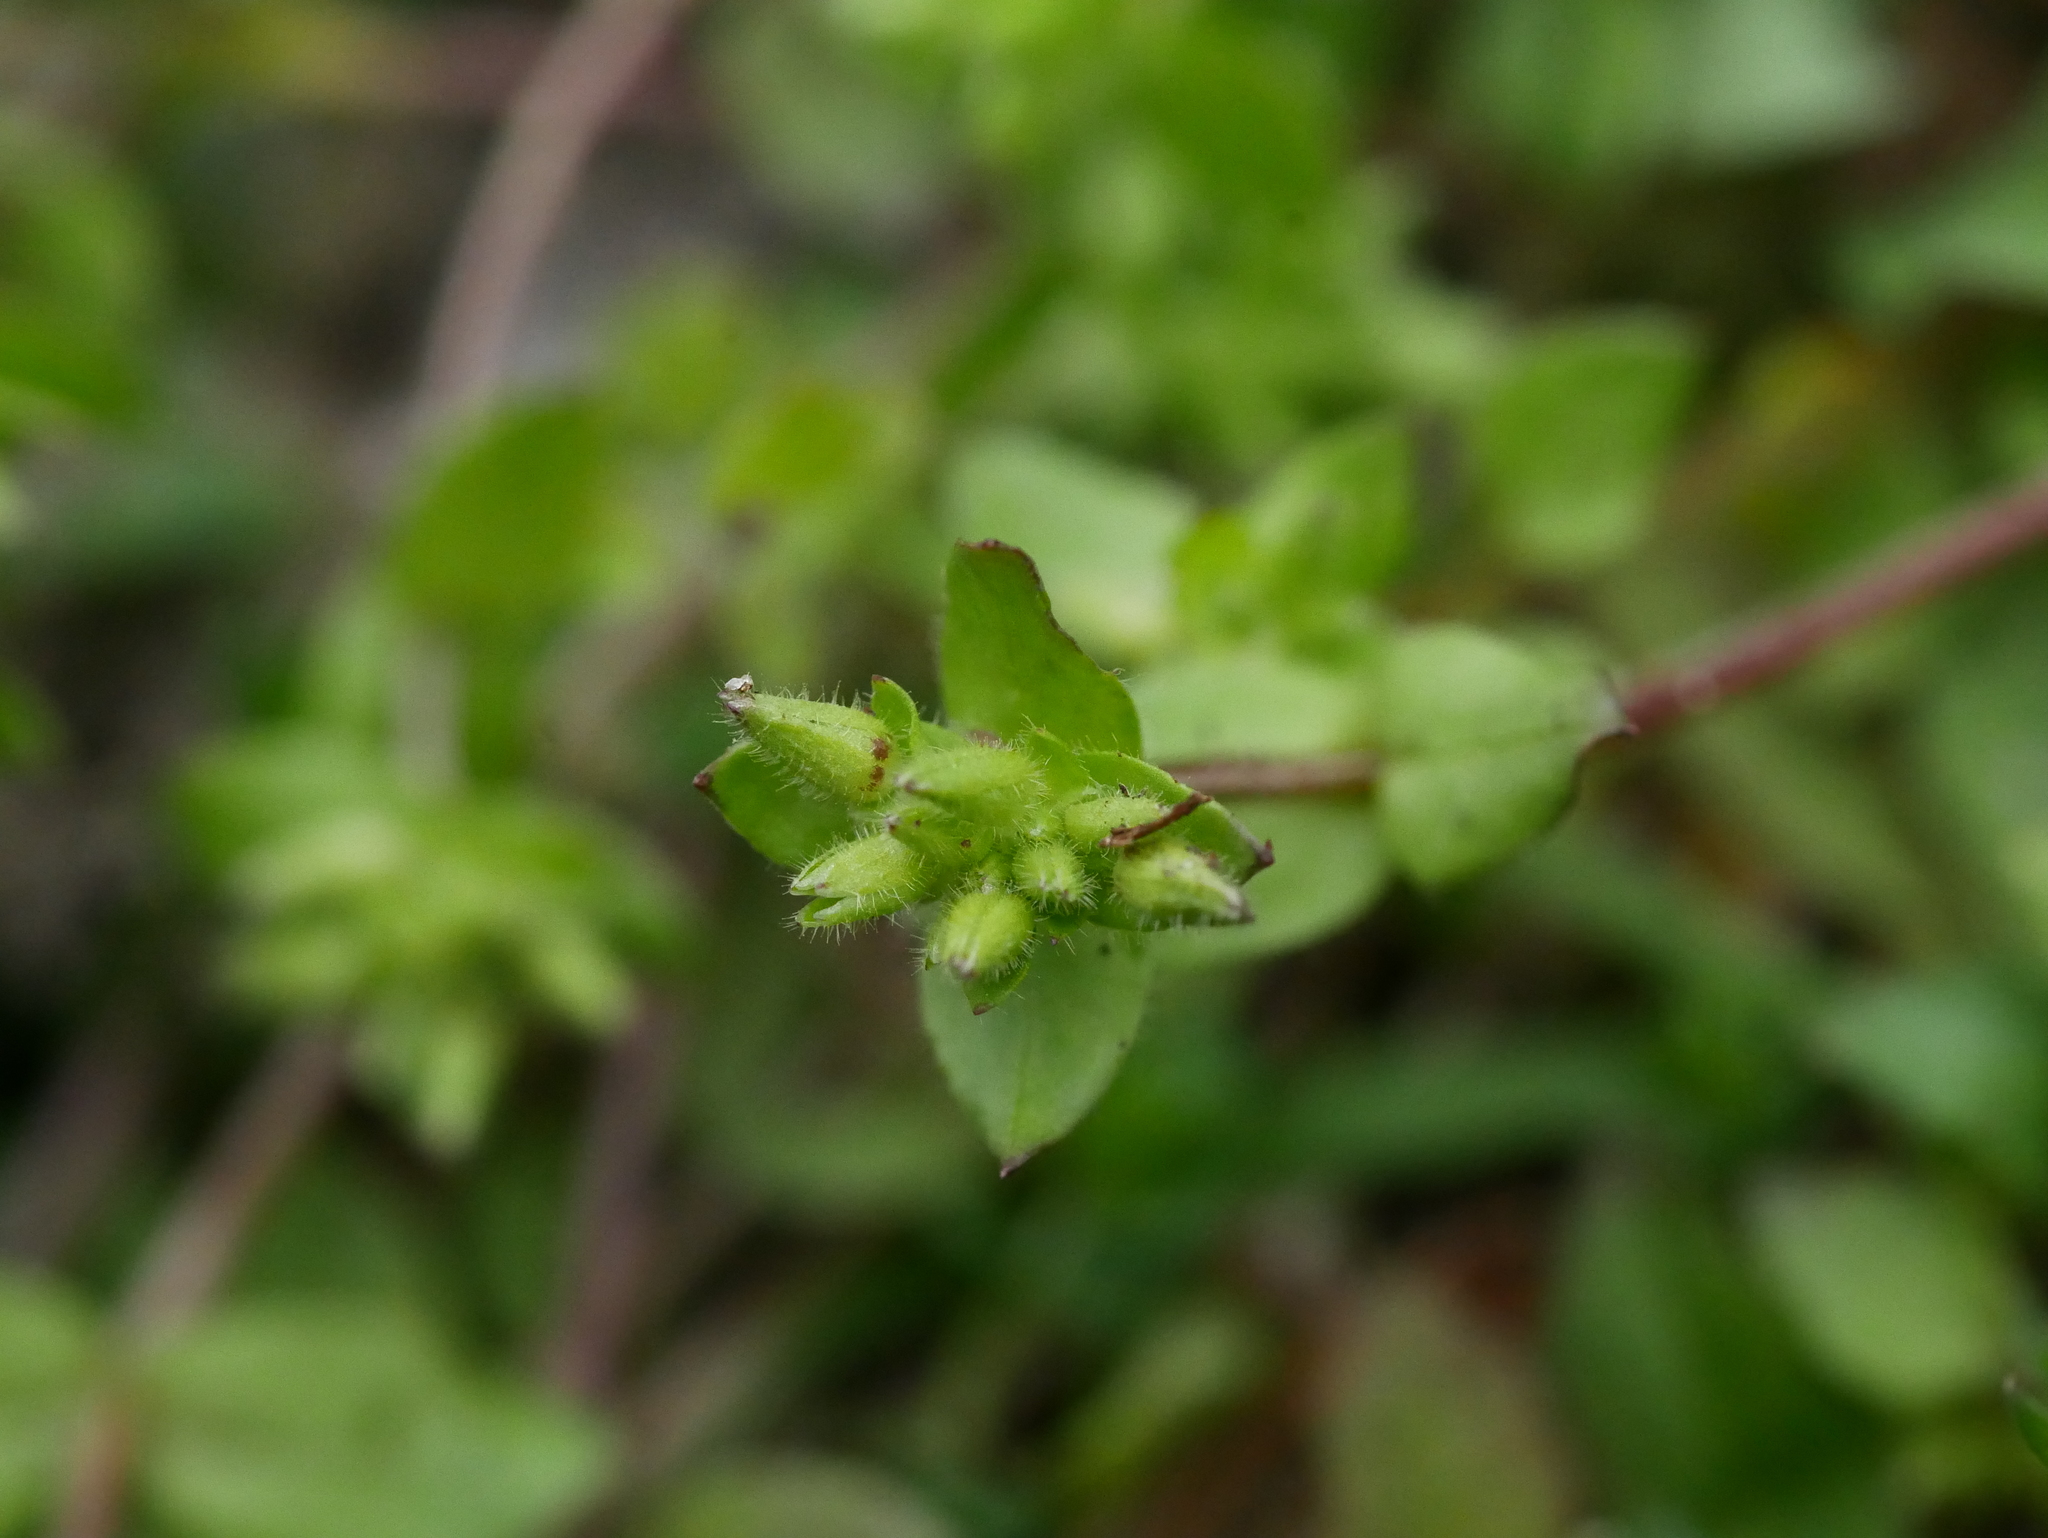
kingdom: Plantae
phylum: Tracheophyta
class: Magnoliopsida
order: Caryophyllales
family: Caryophyllaceae
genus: Stellaria
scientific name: Stellaria media
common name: Common chickweed
